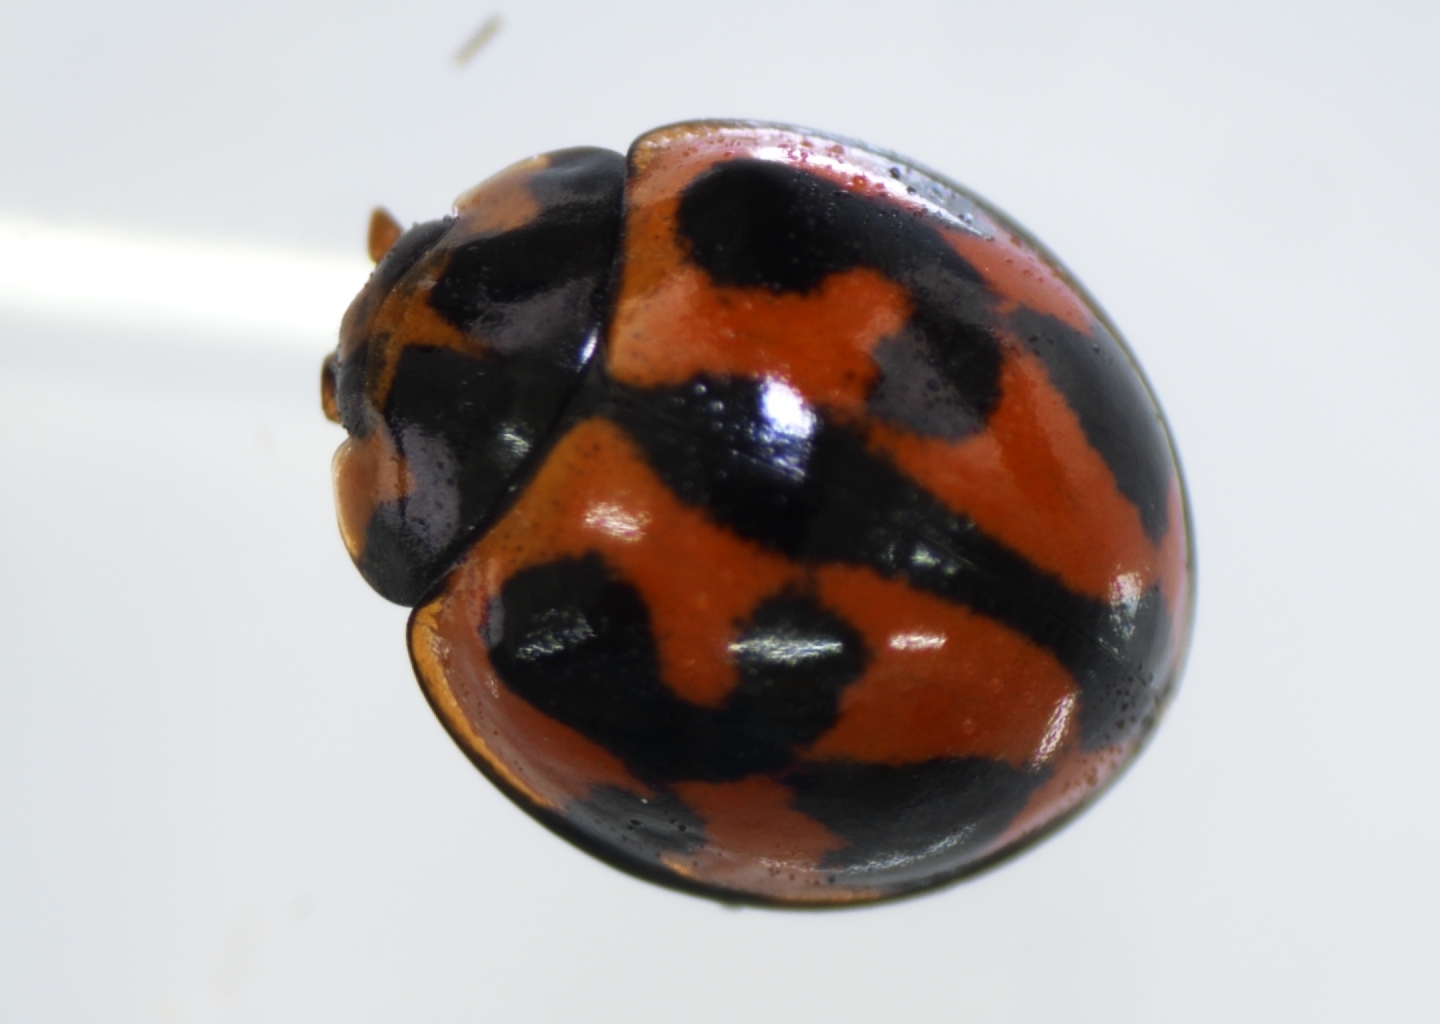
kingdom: Animalia
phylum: Arthropoda
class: Insecta
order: Coleoptera
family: Coccinellidae
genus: Coelophora
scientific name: Coelophora inaequalis
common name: Common australian lady beetle
